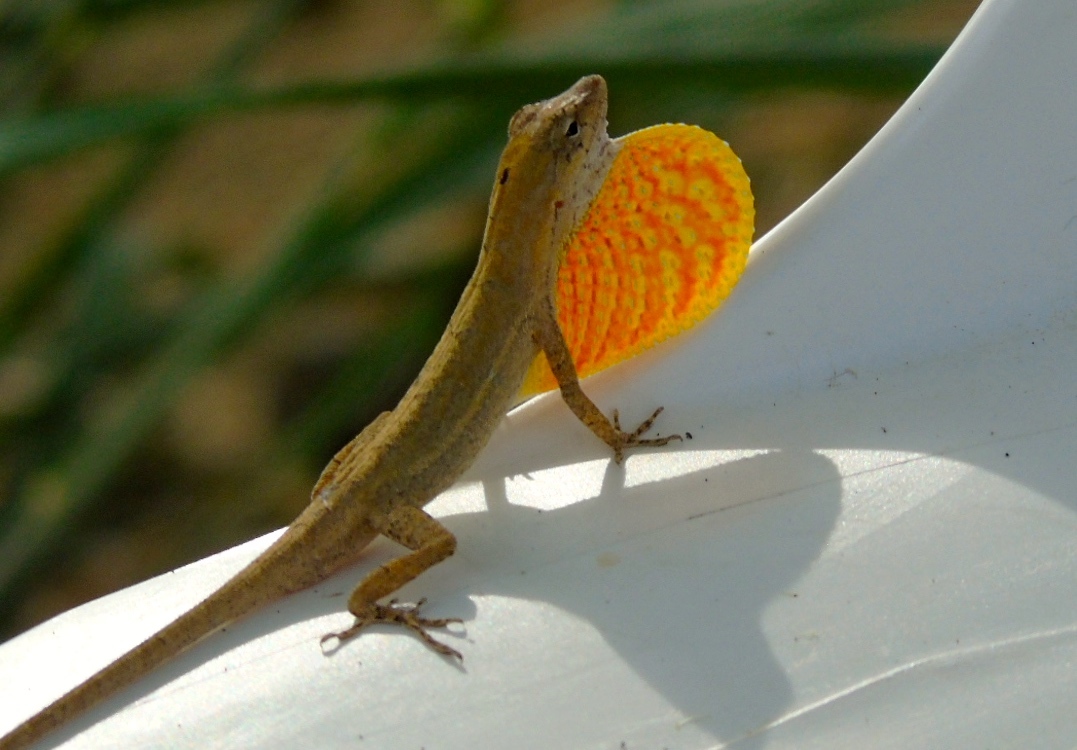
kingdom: Animalia
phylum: Chordata
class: Squamata
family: Dactyloidae
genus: Anolis
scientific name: Anolis nebulosus
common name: Clouded anole
